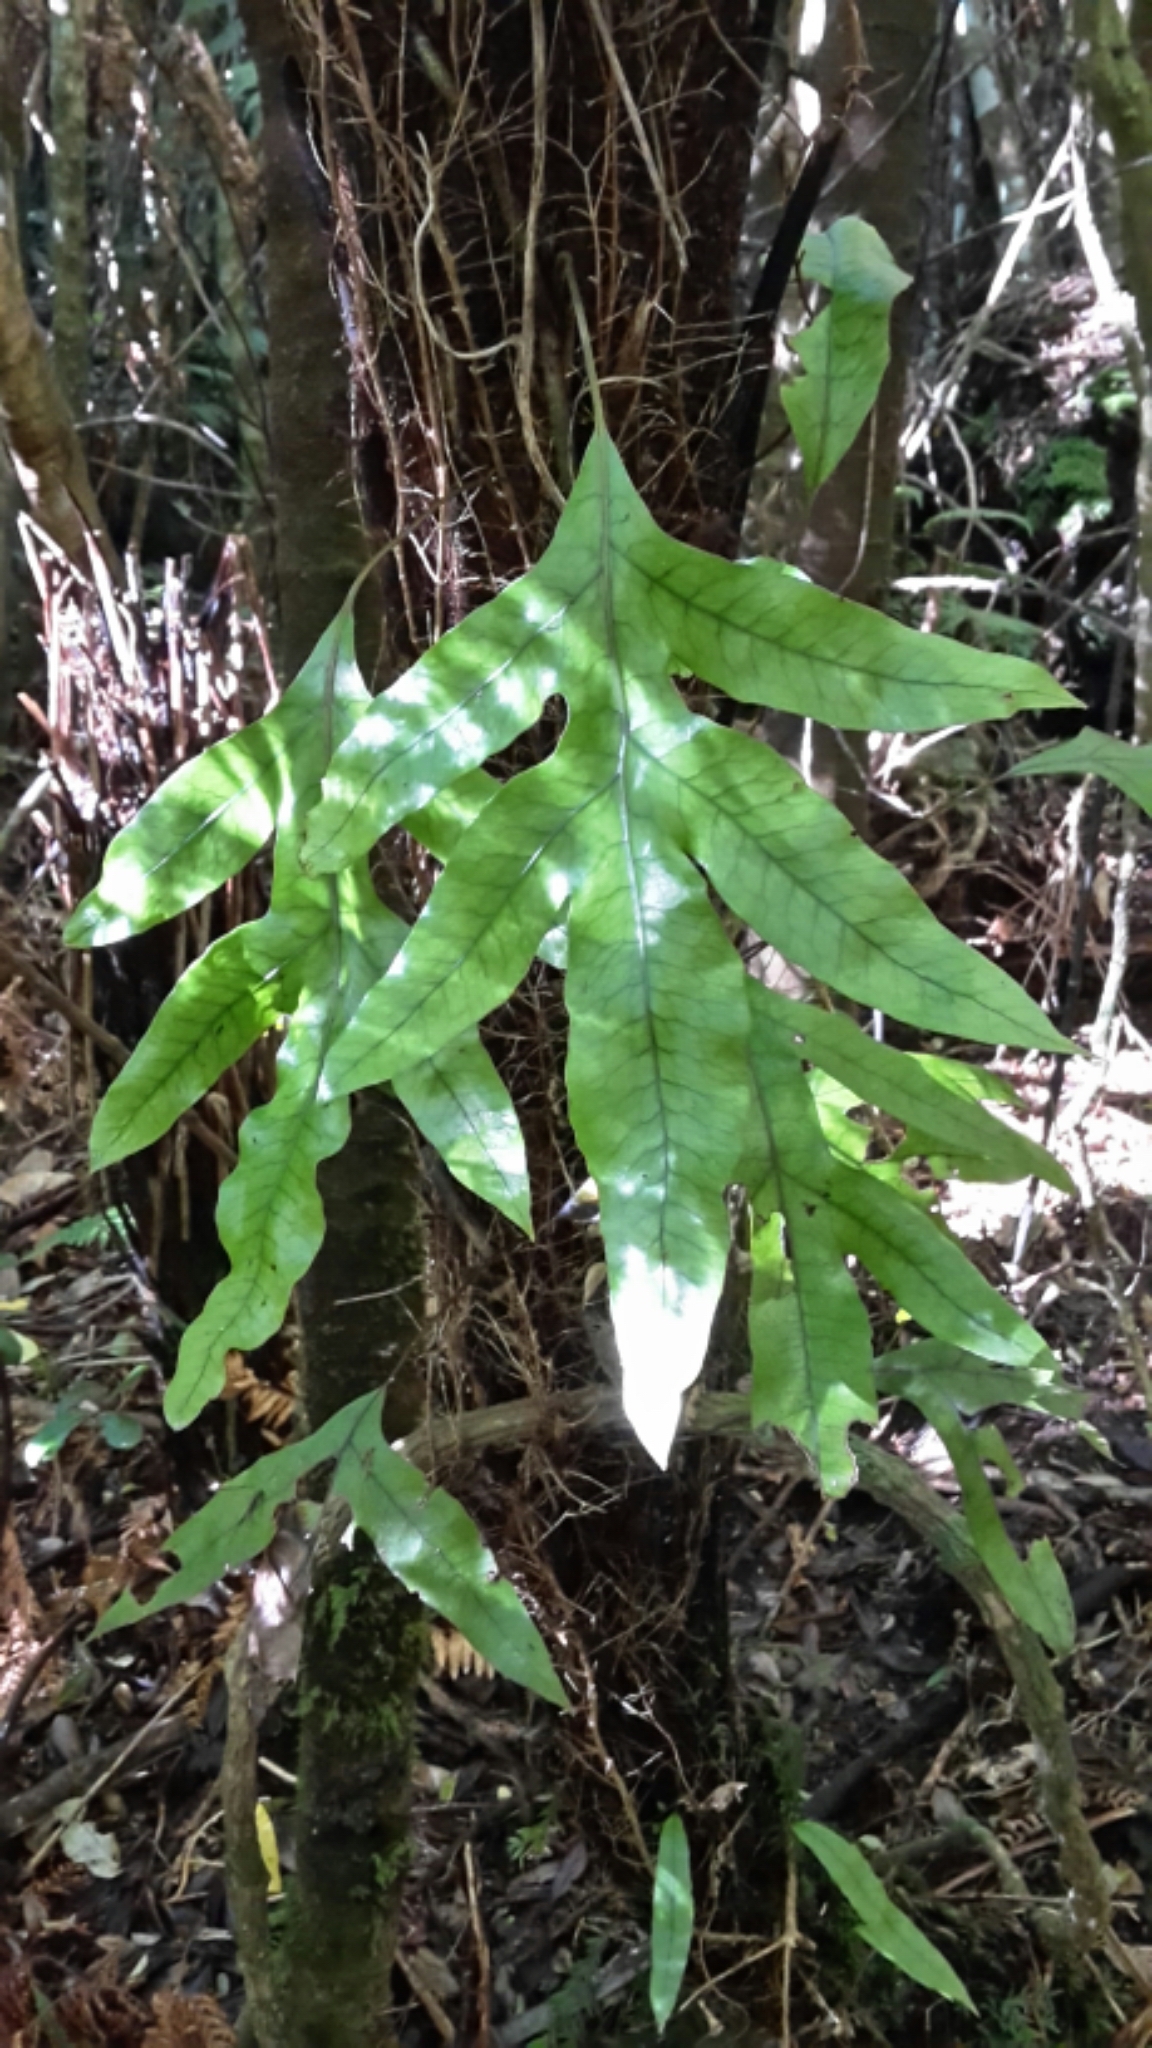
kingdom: Plantae
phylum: Tracheophyta
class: Polypodiopsida
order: Polypodiales
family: Polypodiaceae
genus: Lecanopteris
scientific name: Lecanopteris pustulata
